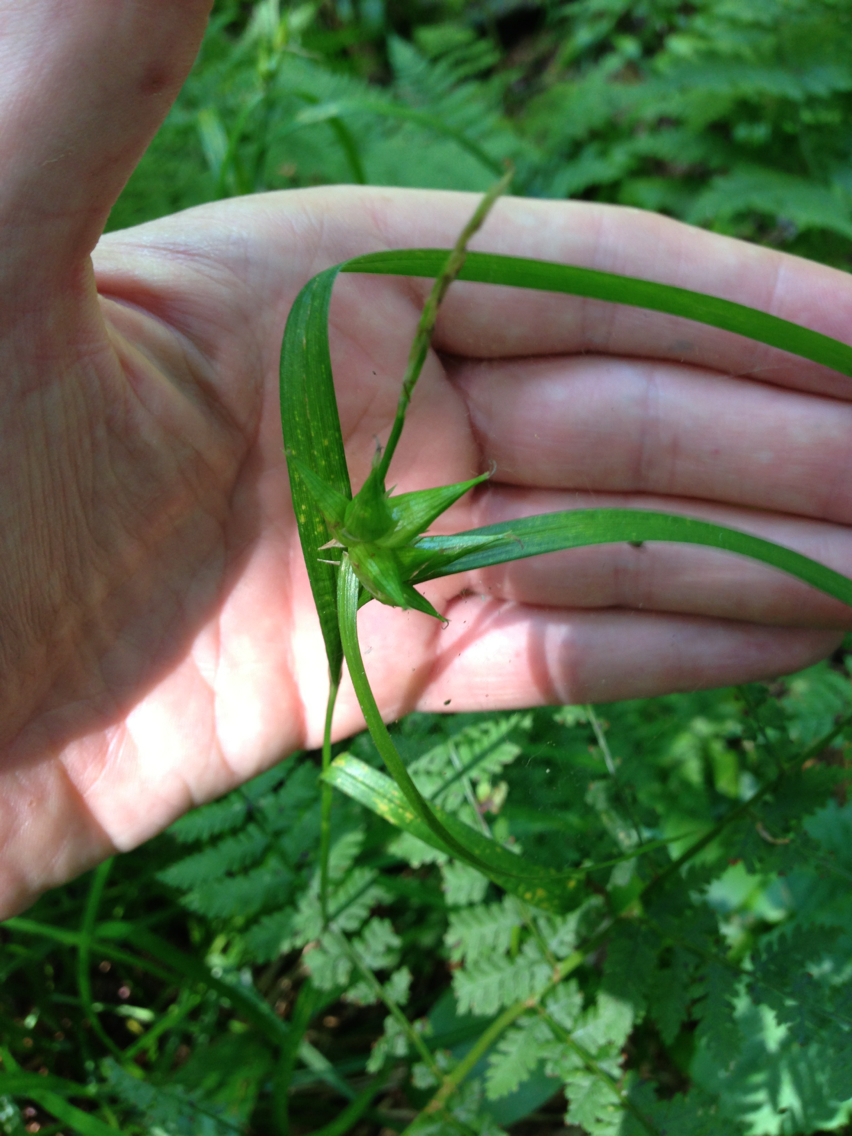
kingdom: Plantae
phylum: Tracheophyta
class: Liliopsida
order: Poales
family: Cyperaceae
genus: Carex
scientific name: Carex intumescens
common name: Greater bladder sedge
